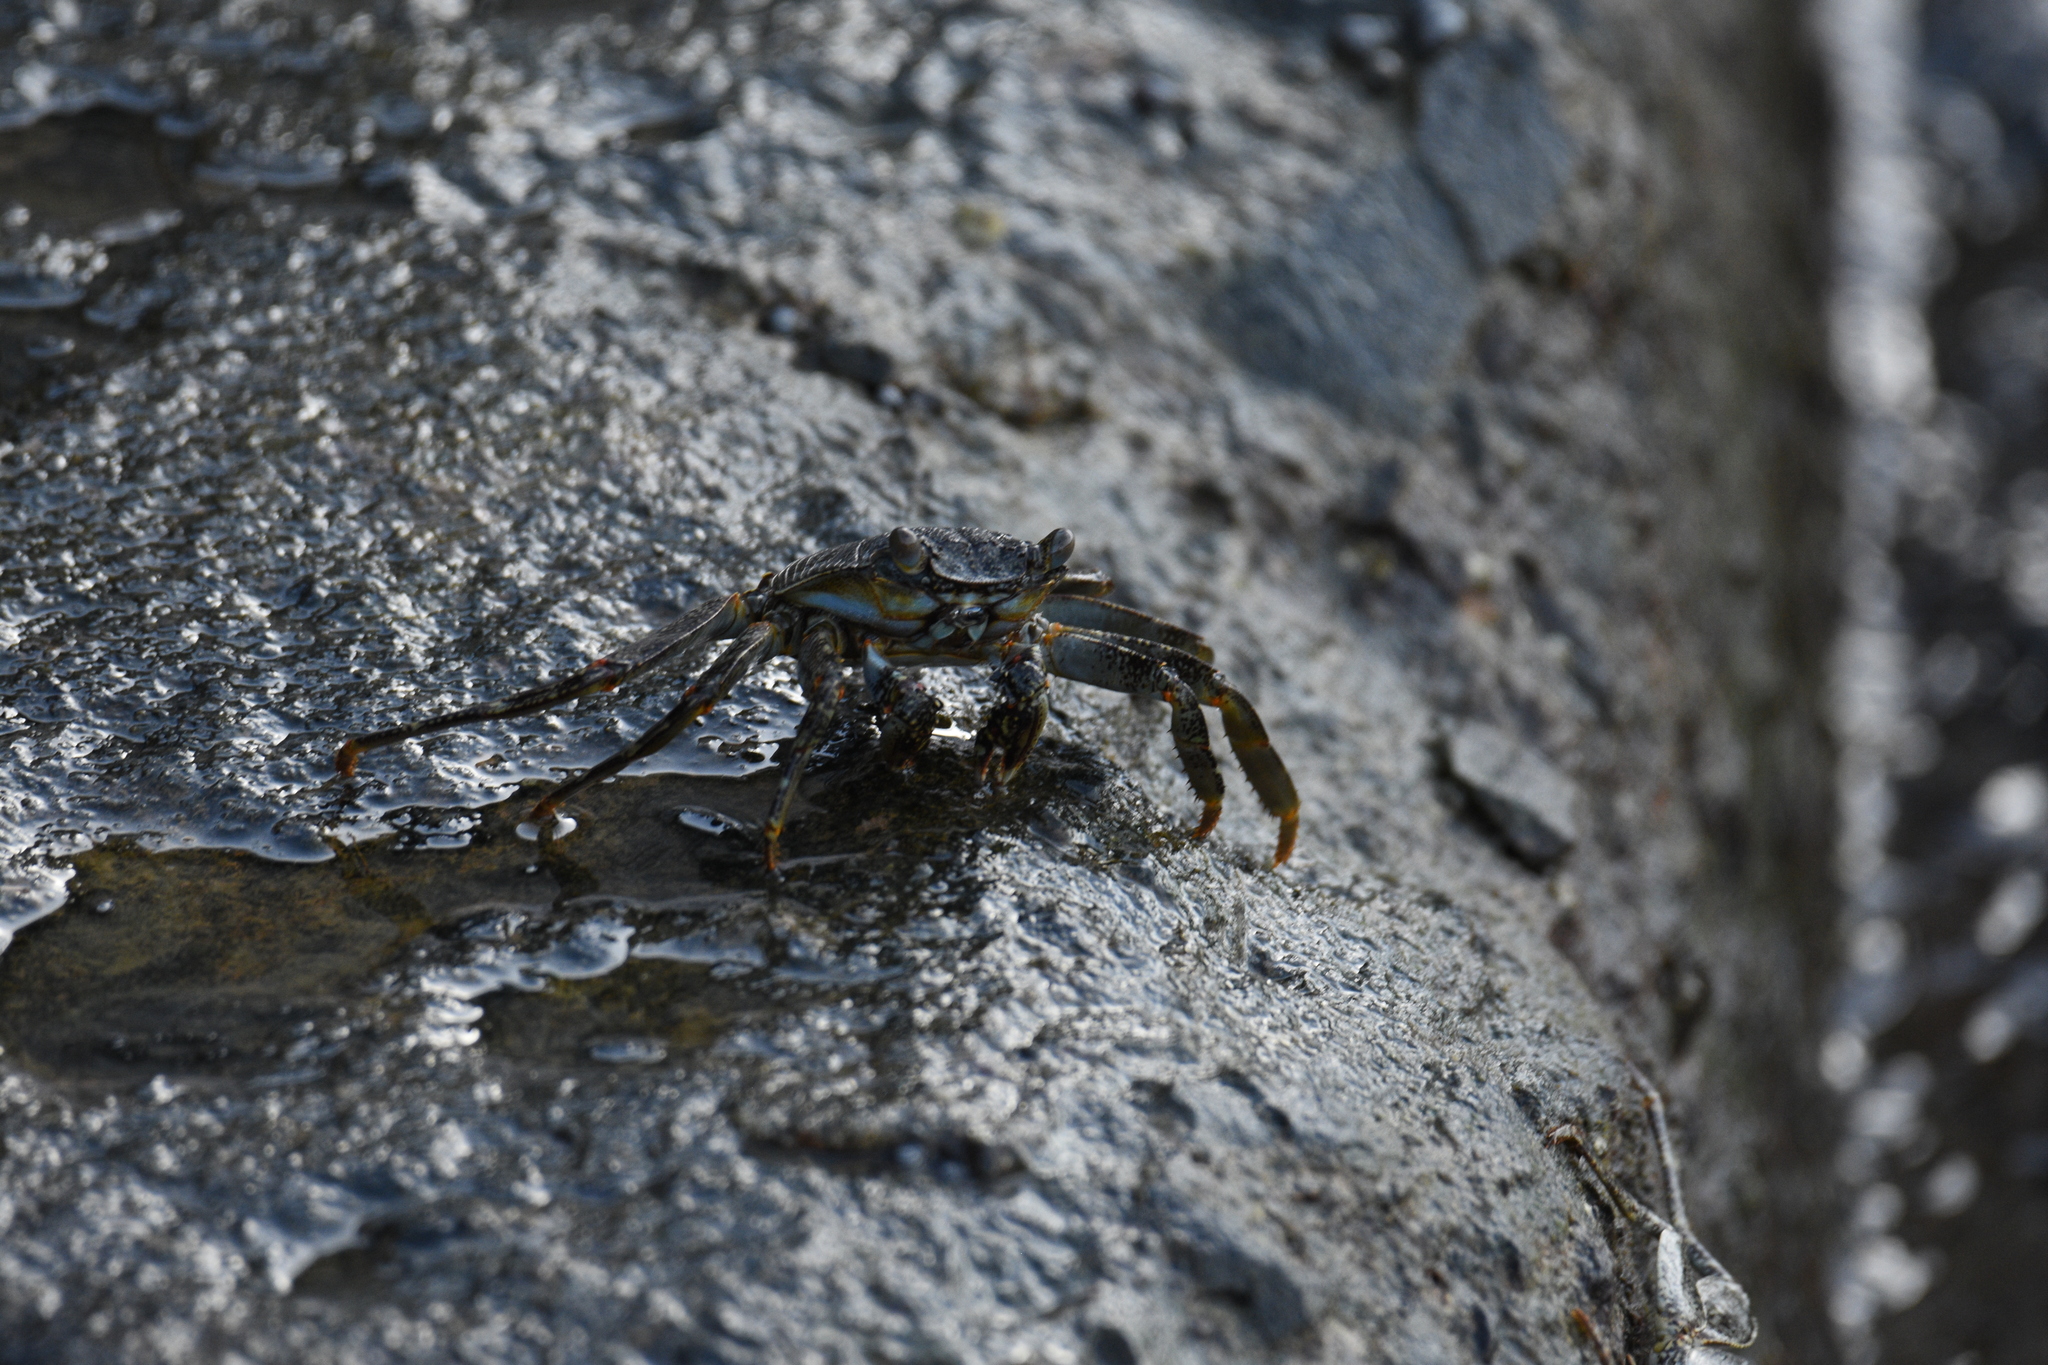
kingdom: Animalia
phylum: Arthropoda
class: Malacostraca
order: Decapoda
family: Grapsidae
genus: Grapsus
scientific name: Grapsus grapsus
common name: Sally lightfoot
